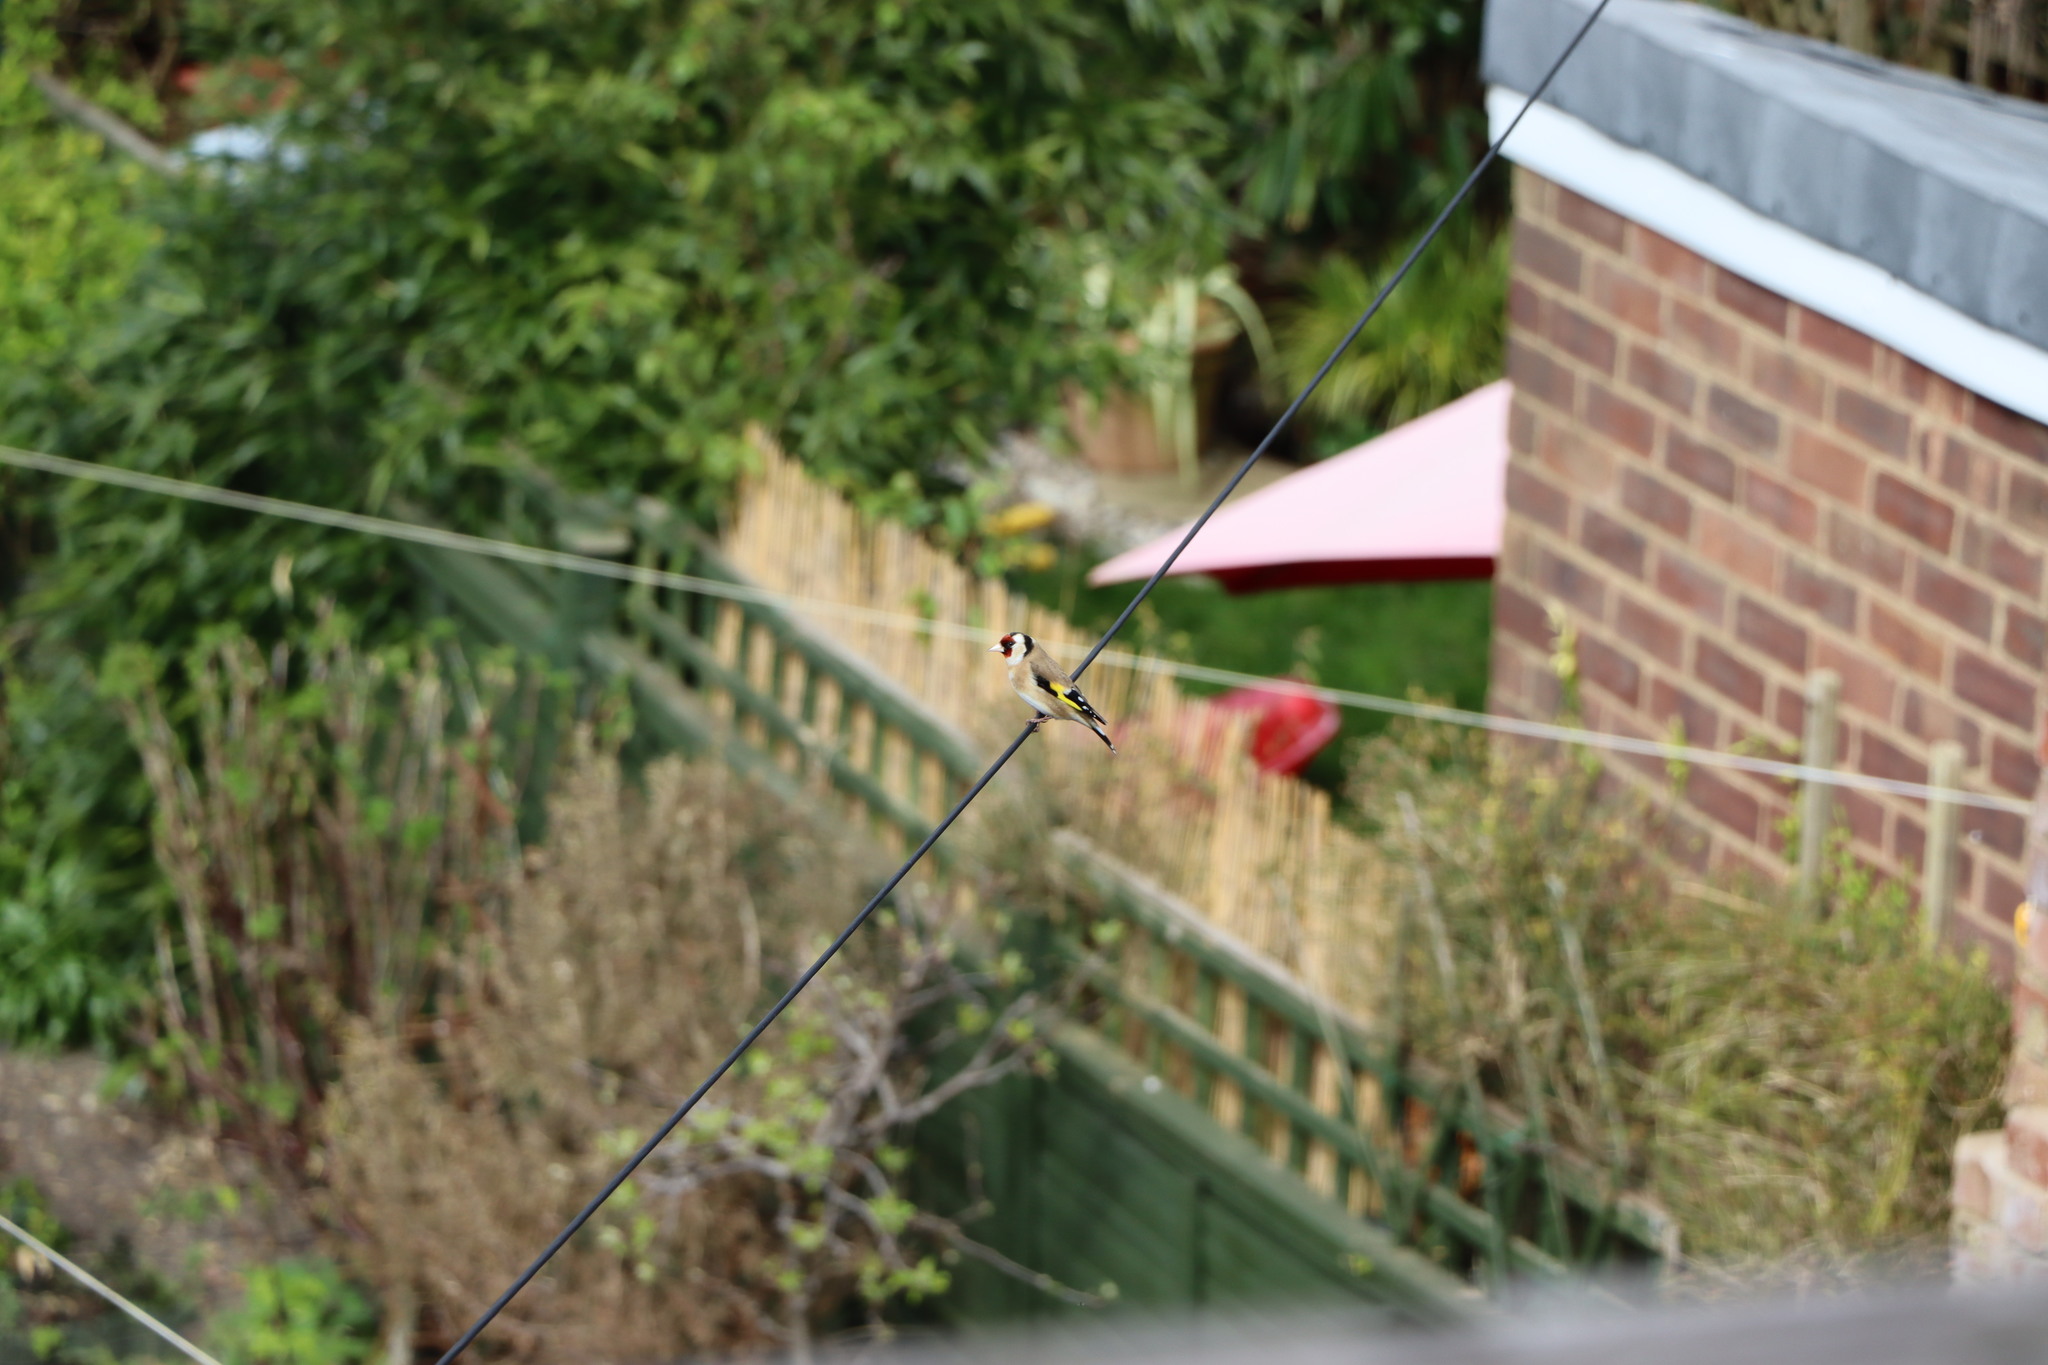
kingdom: Animalia
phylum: Chordata
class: Aves
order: Passeriformes
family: Fringillidae
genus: Carduelis
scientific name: Carduelis carduelis
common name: European goldfinch
